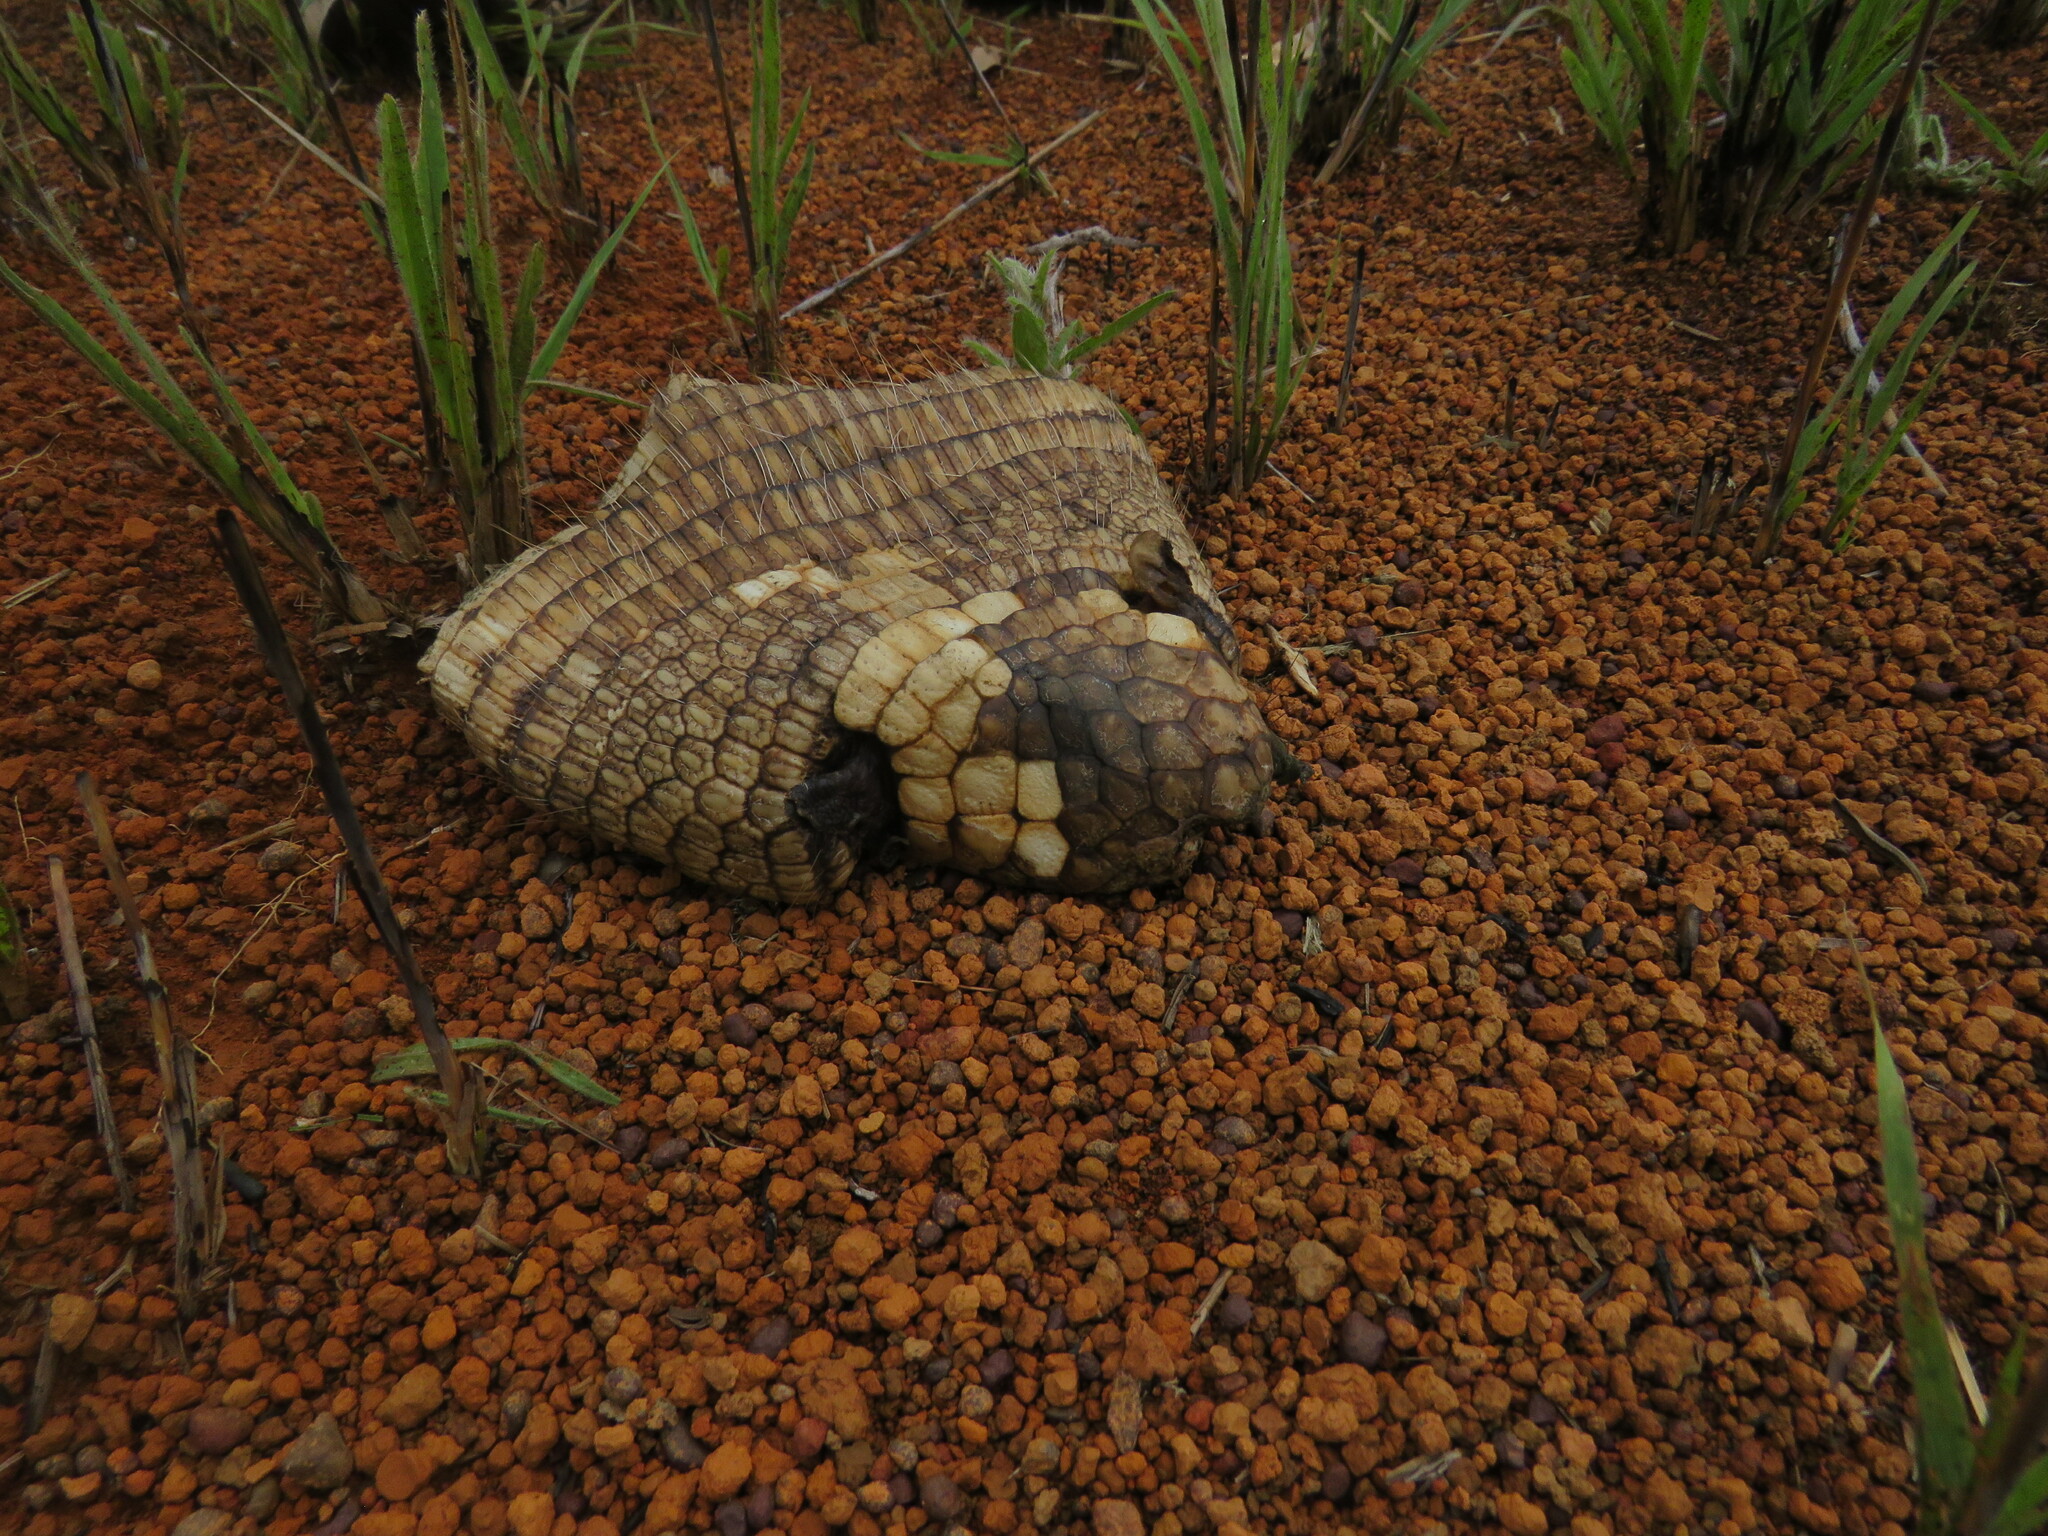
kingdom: Animalia
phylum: Chordata
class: Mammalia
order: Cingulata
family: Dasypodidae
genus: Euphractus
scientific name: Euphractus sexcinctus
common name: Six-banded armadillo
